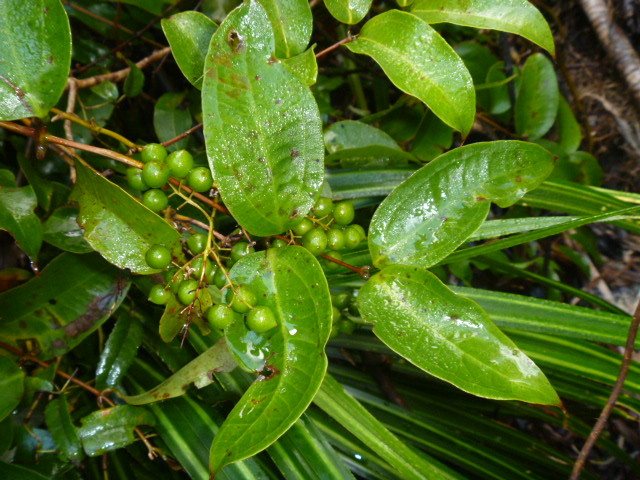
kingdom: Plantae
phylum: Tracheophyta
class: Liliopsida
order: Liliales
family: Ripogonaceae
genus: Ripogonum
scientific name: Ripogonum scandens
